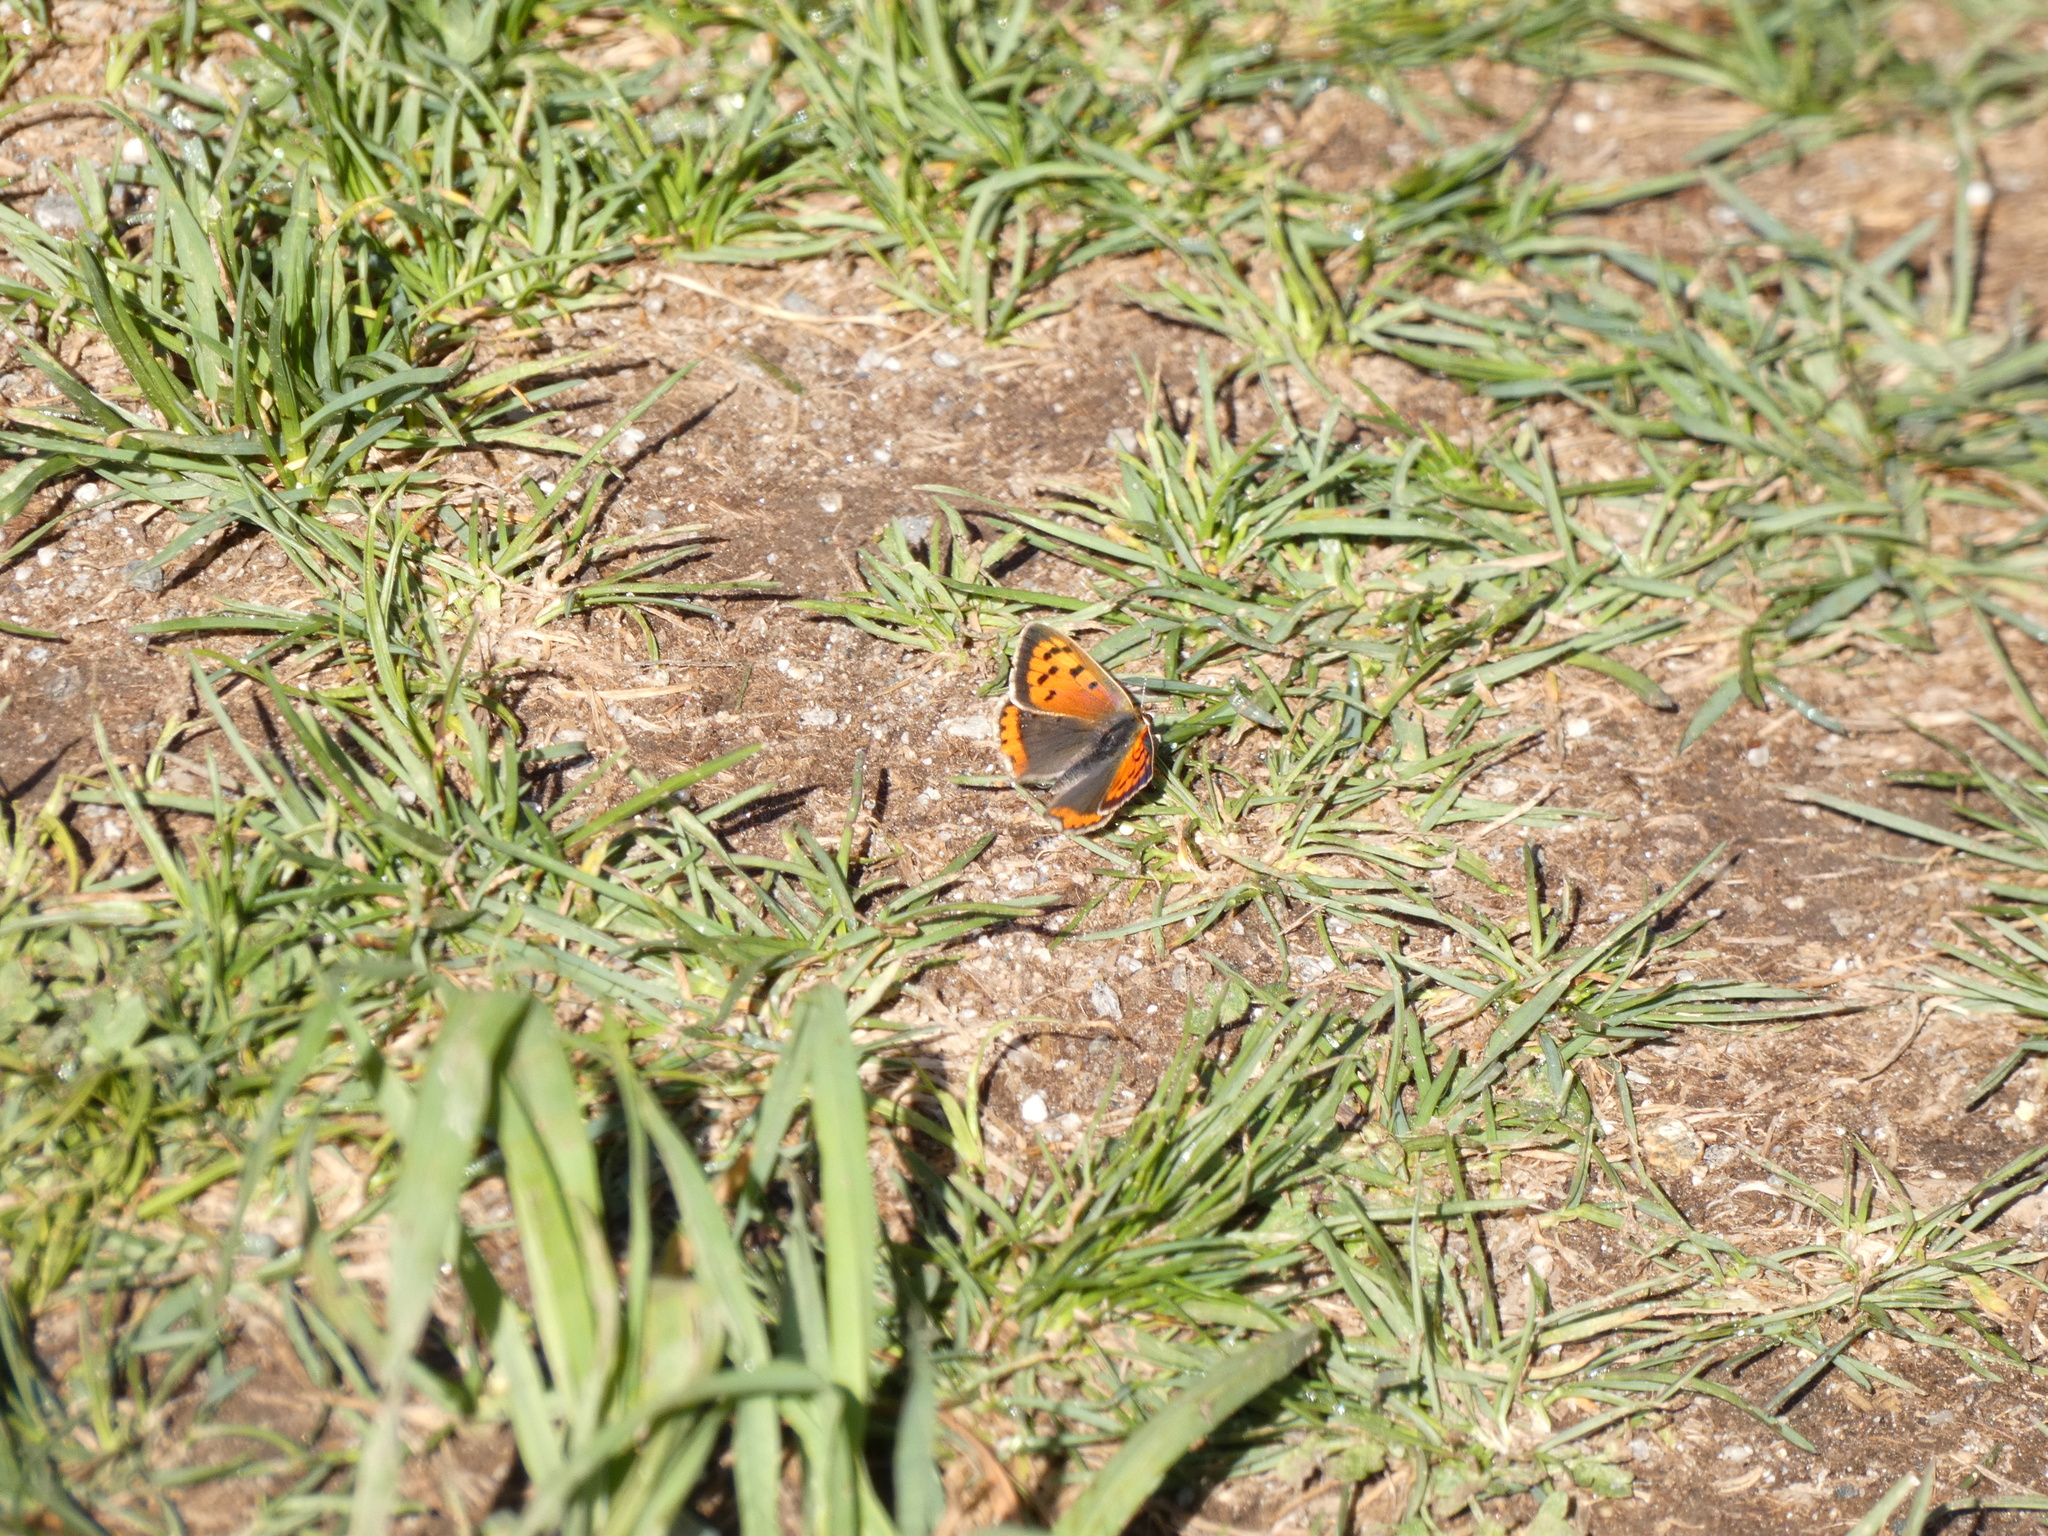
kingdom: Animalia
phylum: Arthropoda
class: Insecta
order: Lepidoptera
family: Lycaenidae
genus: Lycaena
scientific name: Lycaena phlaeas
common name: Small copper
